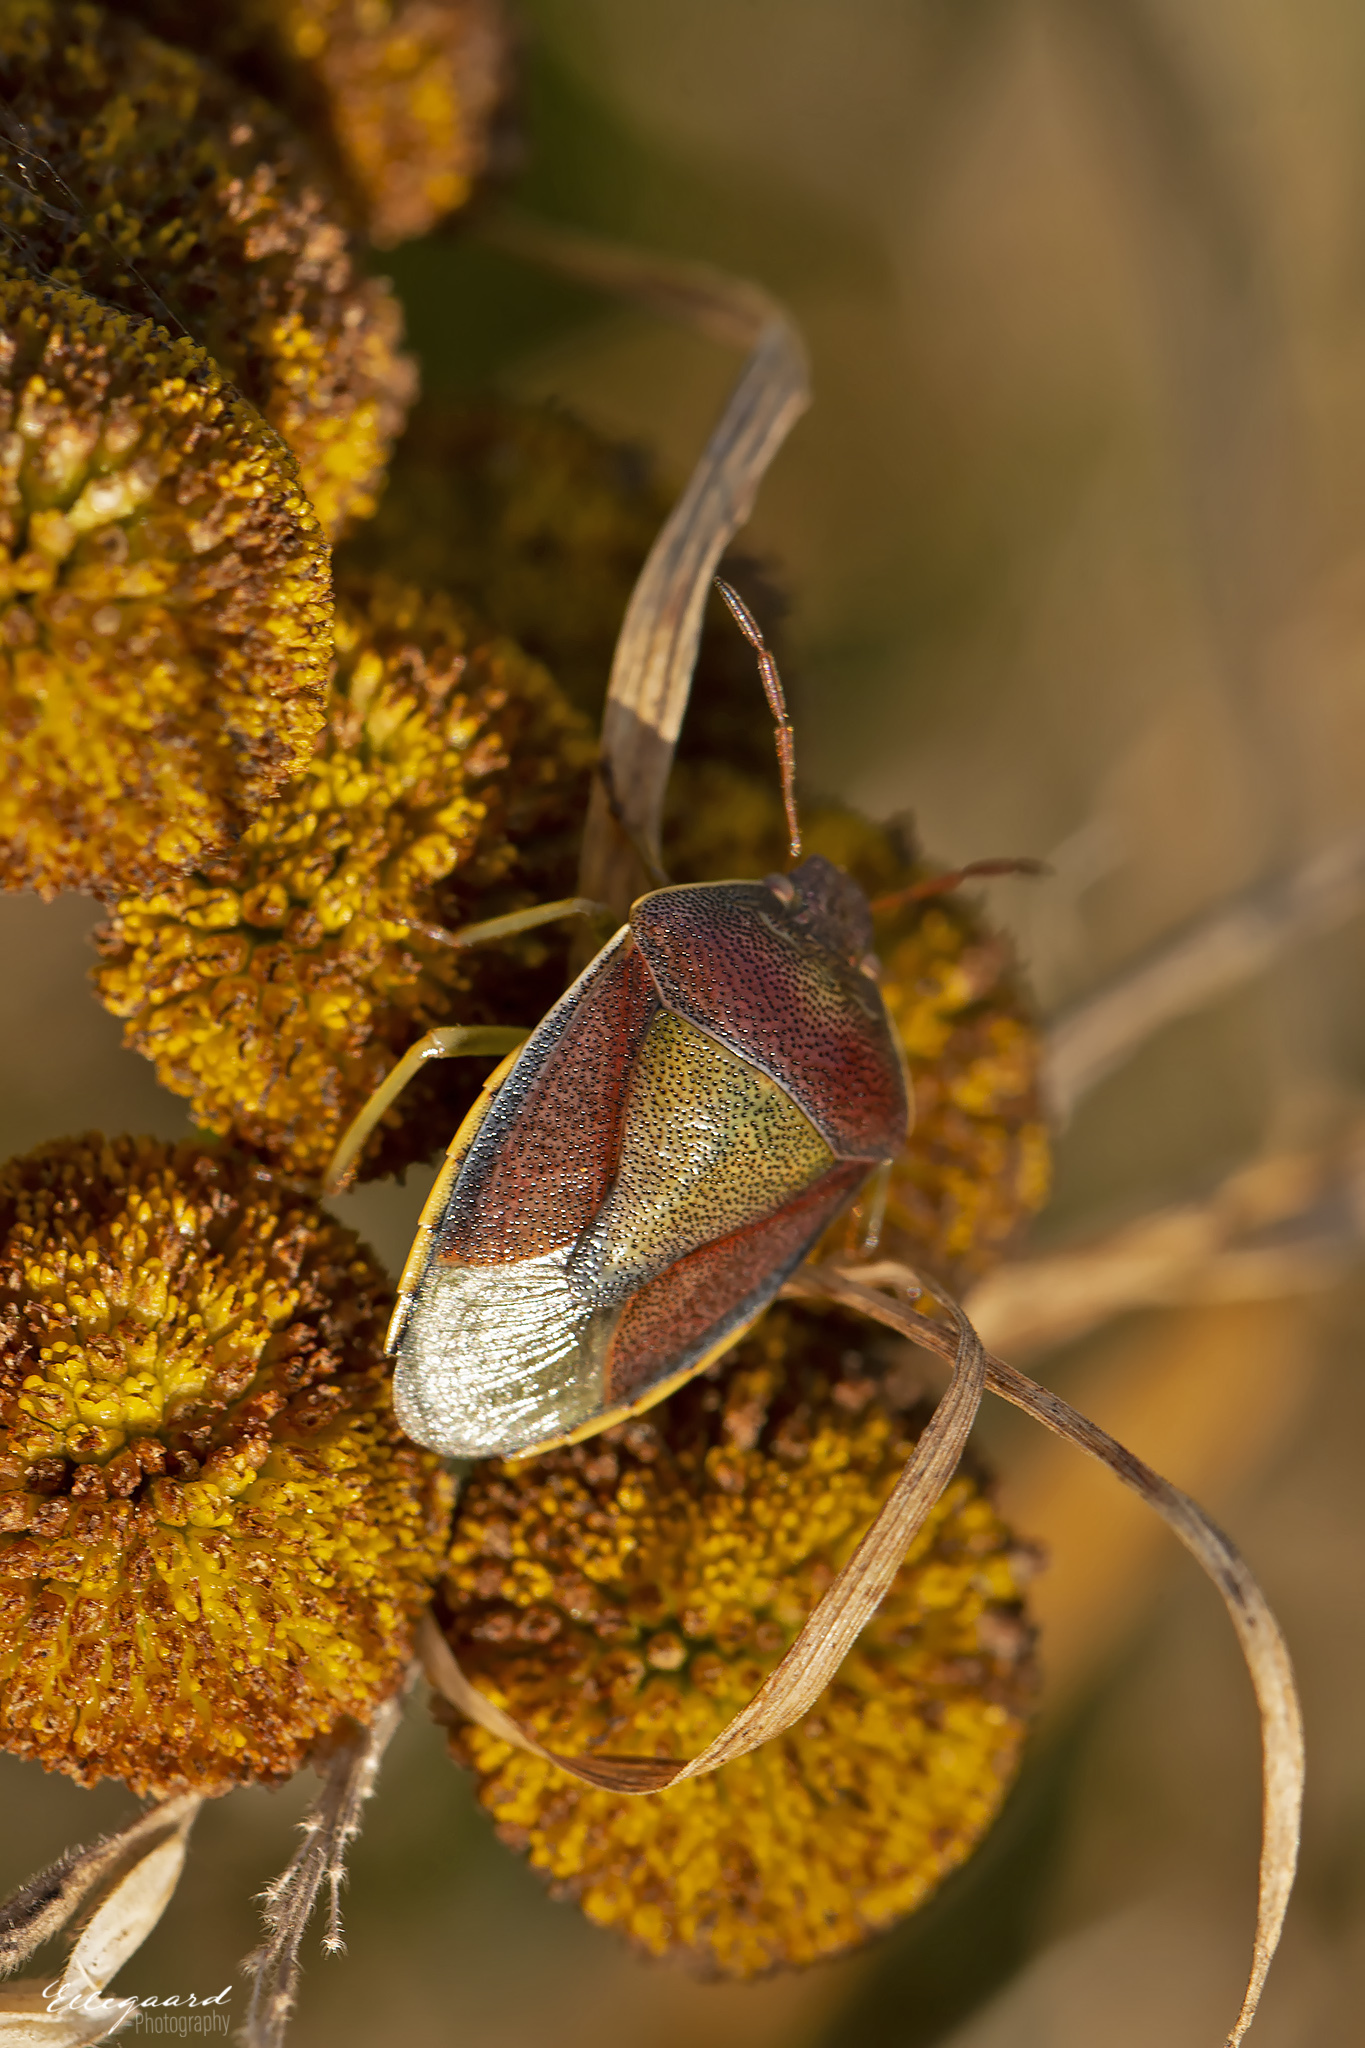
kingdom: Animalia
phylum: Arthropoda
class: Insecta
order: Hemiptera
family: Pentatomidae
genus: Piezodorus
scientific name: Piezodorus lituratus
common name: Stink bug
